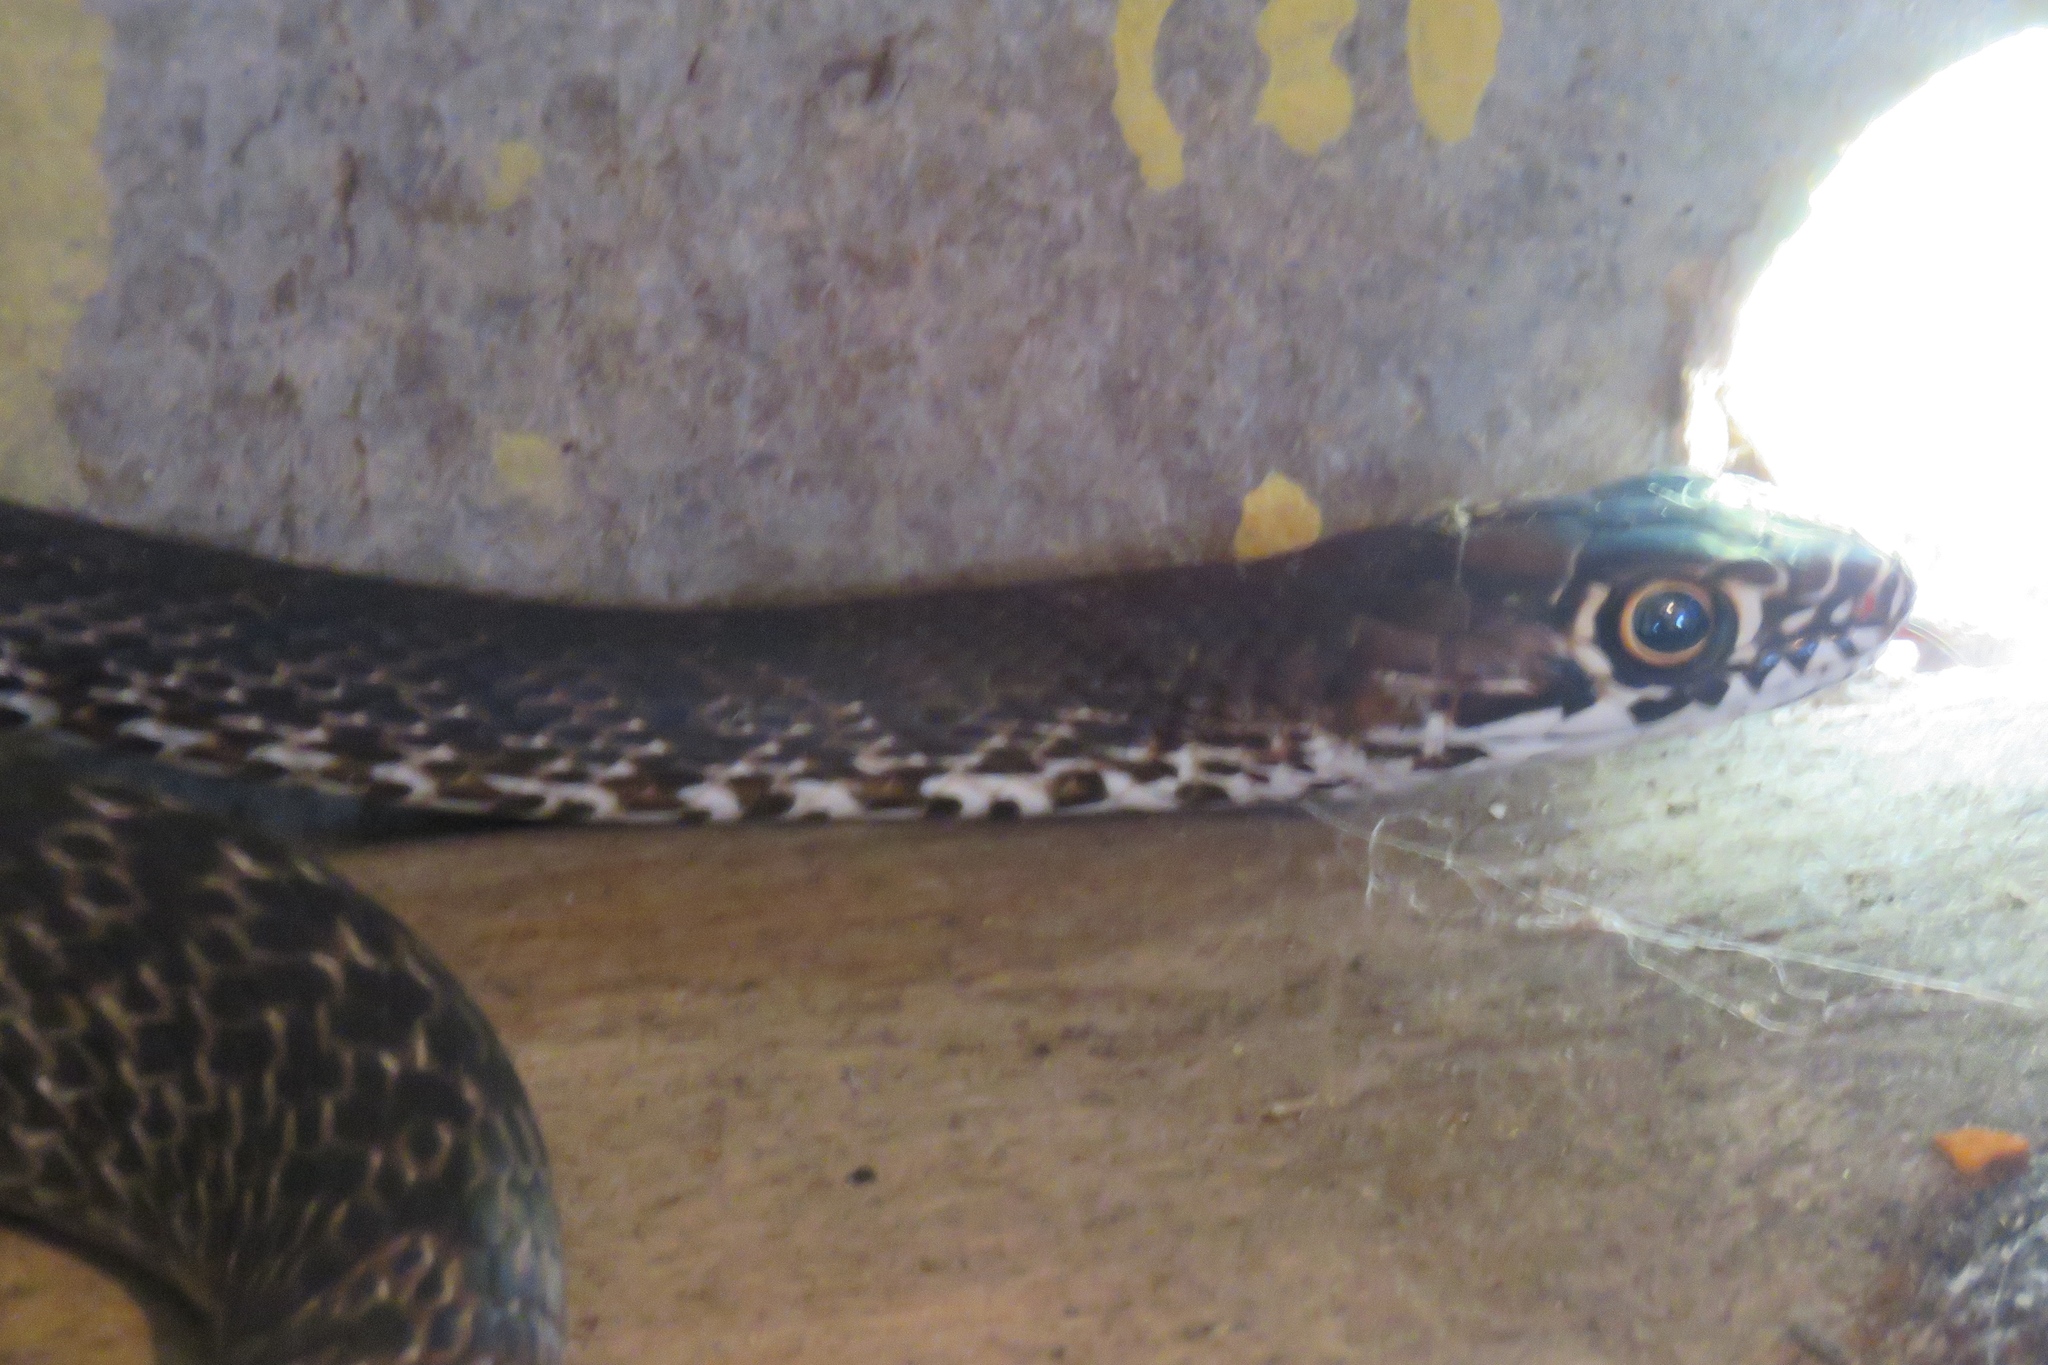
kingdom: Animalia
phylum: Chordata
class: Squamata
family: Colubridae
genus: Masticophis
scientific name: Masticophis flagellum
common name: Coachwhip
